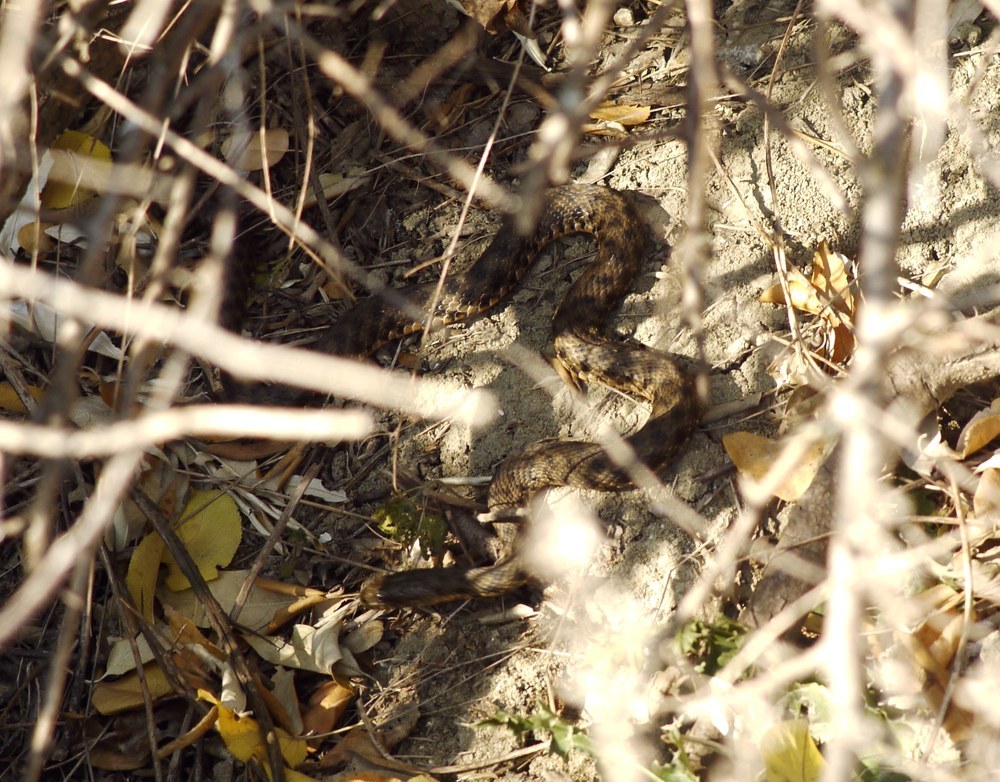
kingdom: Animalia
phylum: Chordata
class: Squamata
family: Colubridae
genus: Natrix
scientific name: Natrix tessellata
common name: Dice snake
